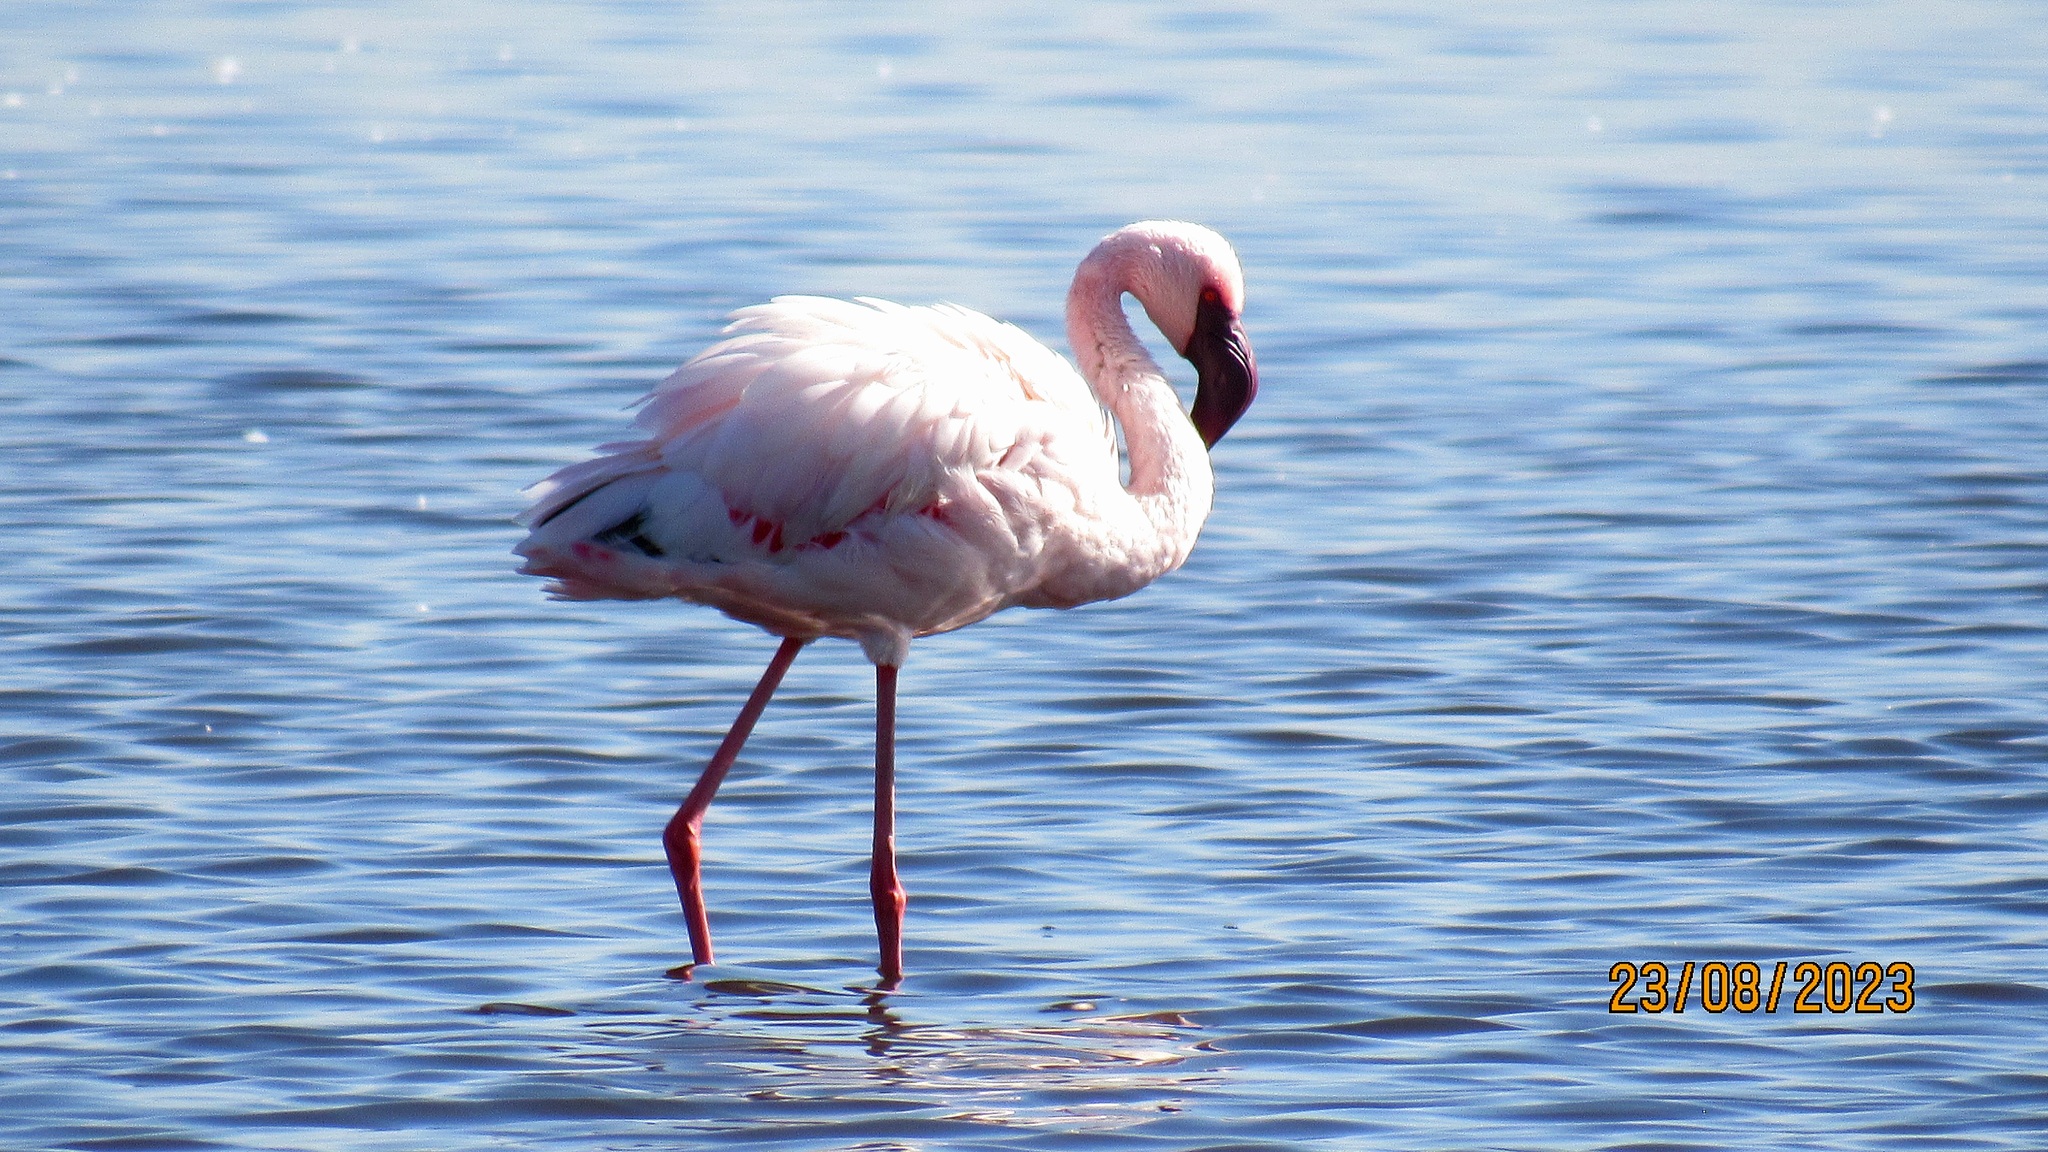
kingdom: Animalia
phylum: Chordata
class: Aves
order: Phoenicopteriformes
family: Phoenicopteridae
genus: Phoeniconaias
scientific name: Phoeniconaias minor
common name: Lesser flamingo
